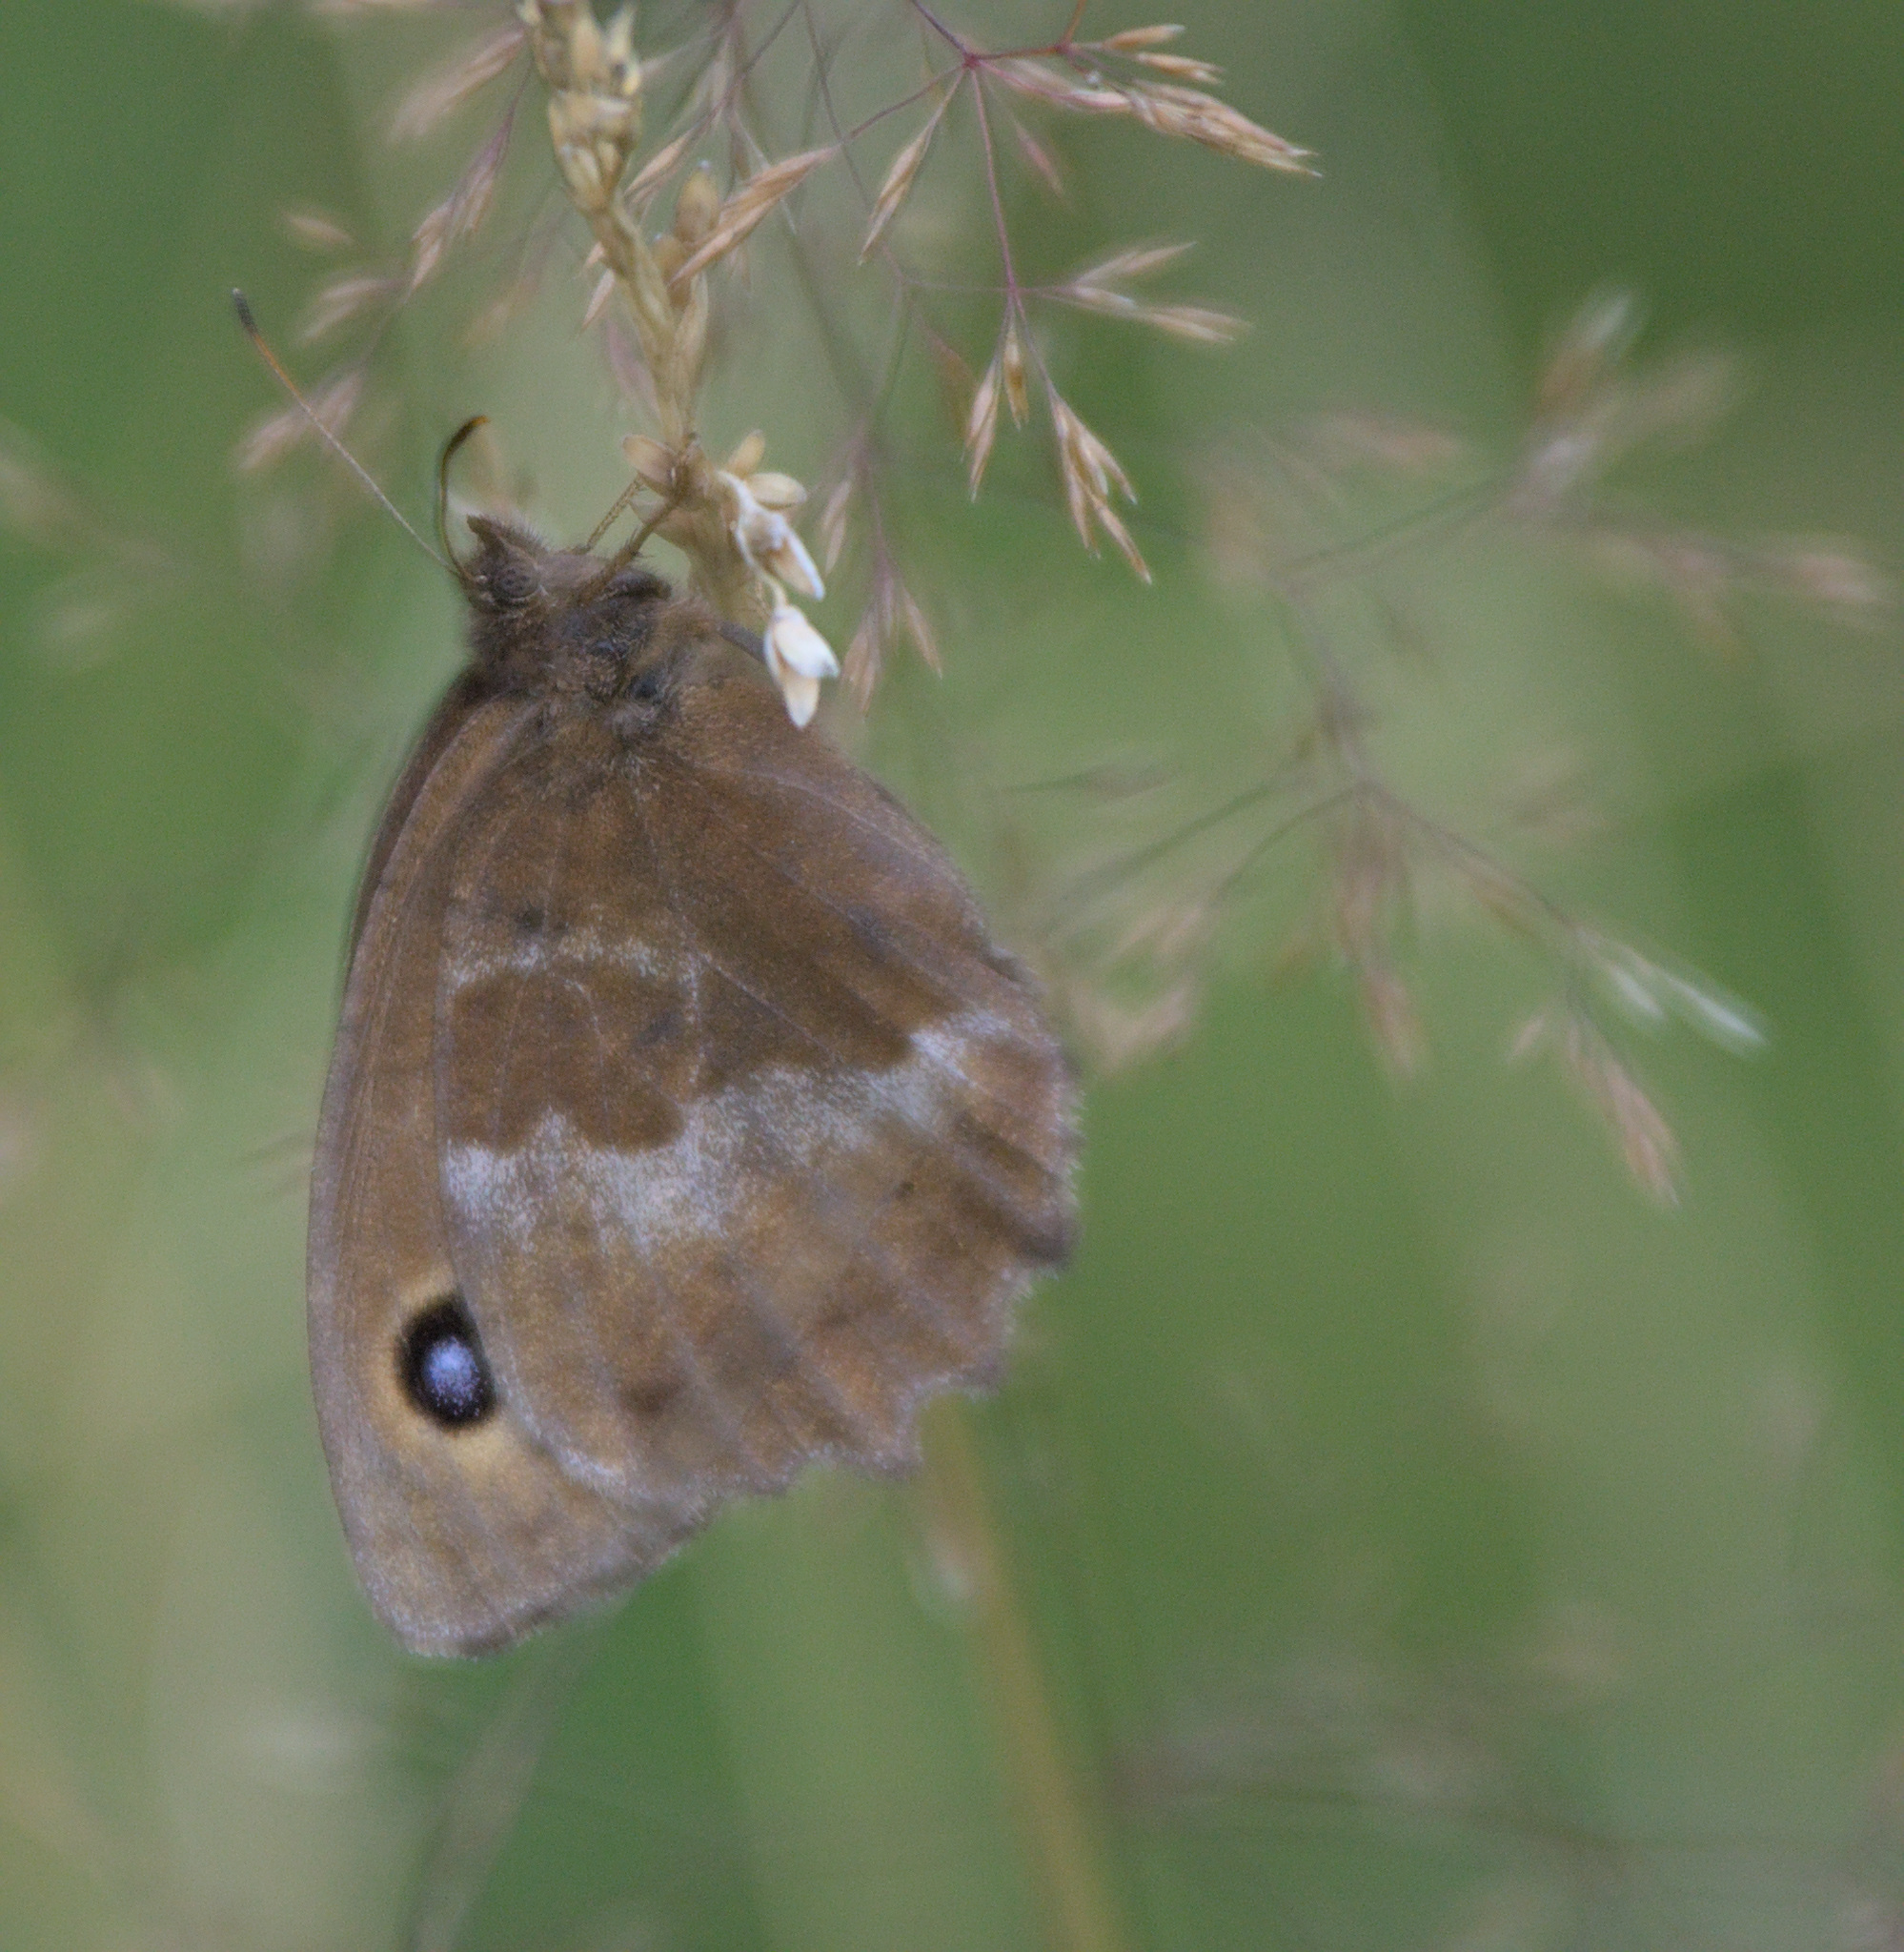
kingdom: Animalia
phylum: Arthropoda
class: Insecta
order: Lepidoptera
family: Nymphalidae
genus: Minois
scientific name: Minois dryas
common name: Dryad
